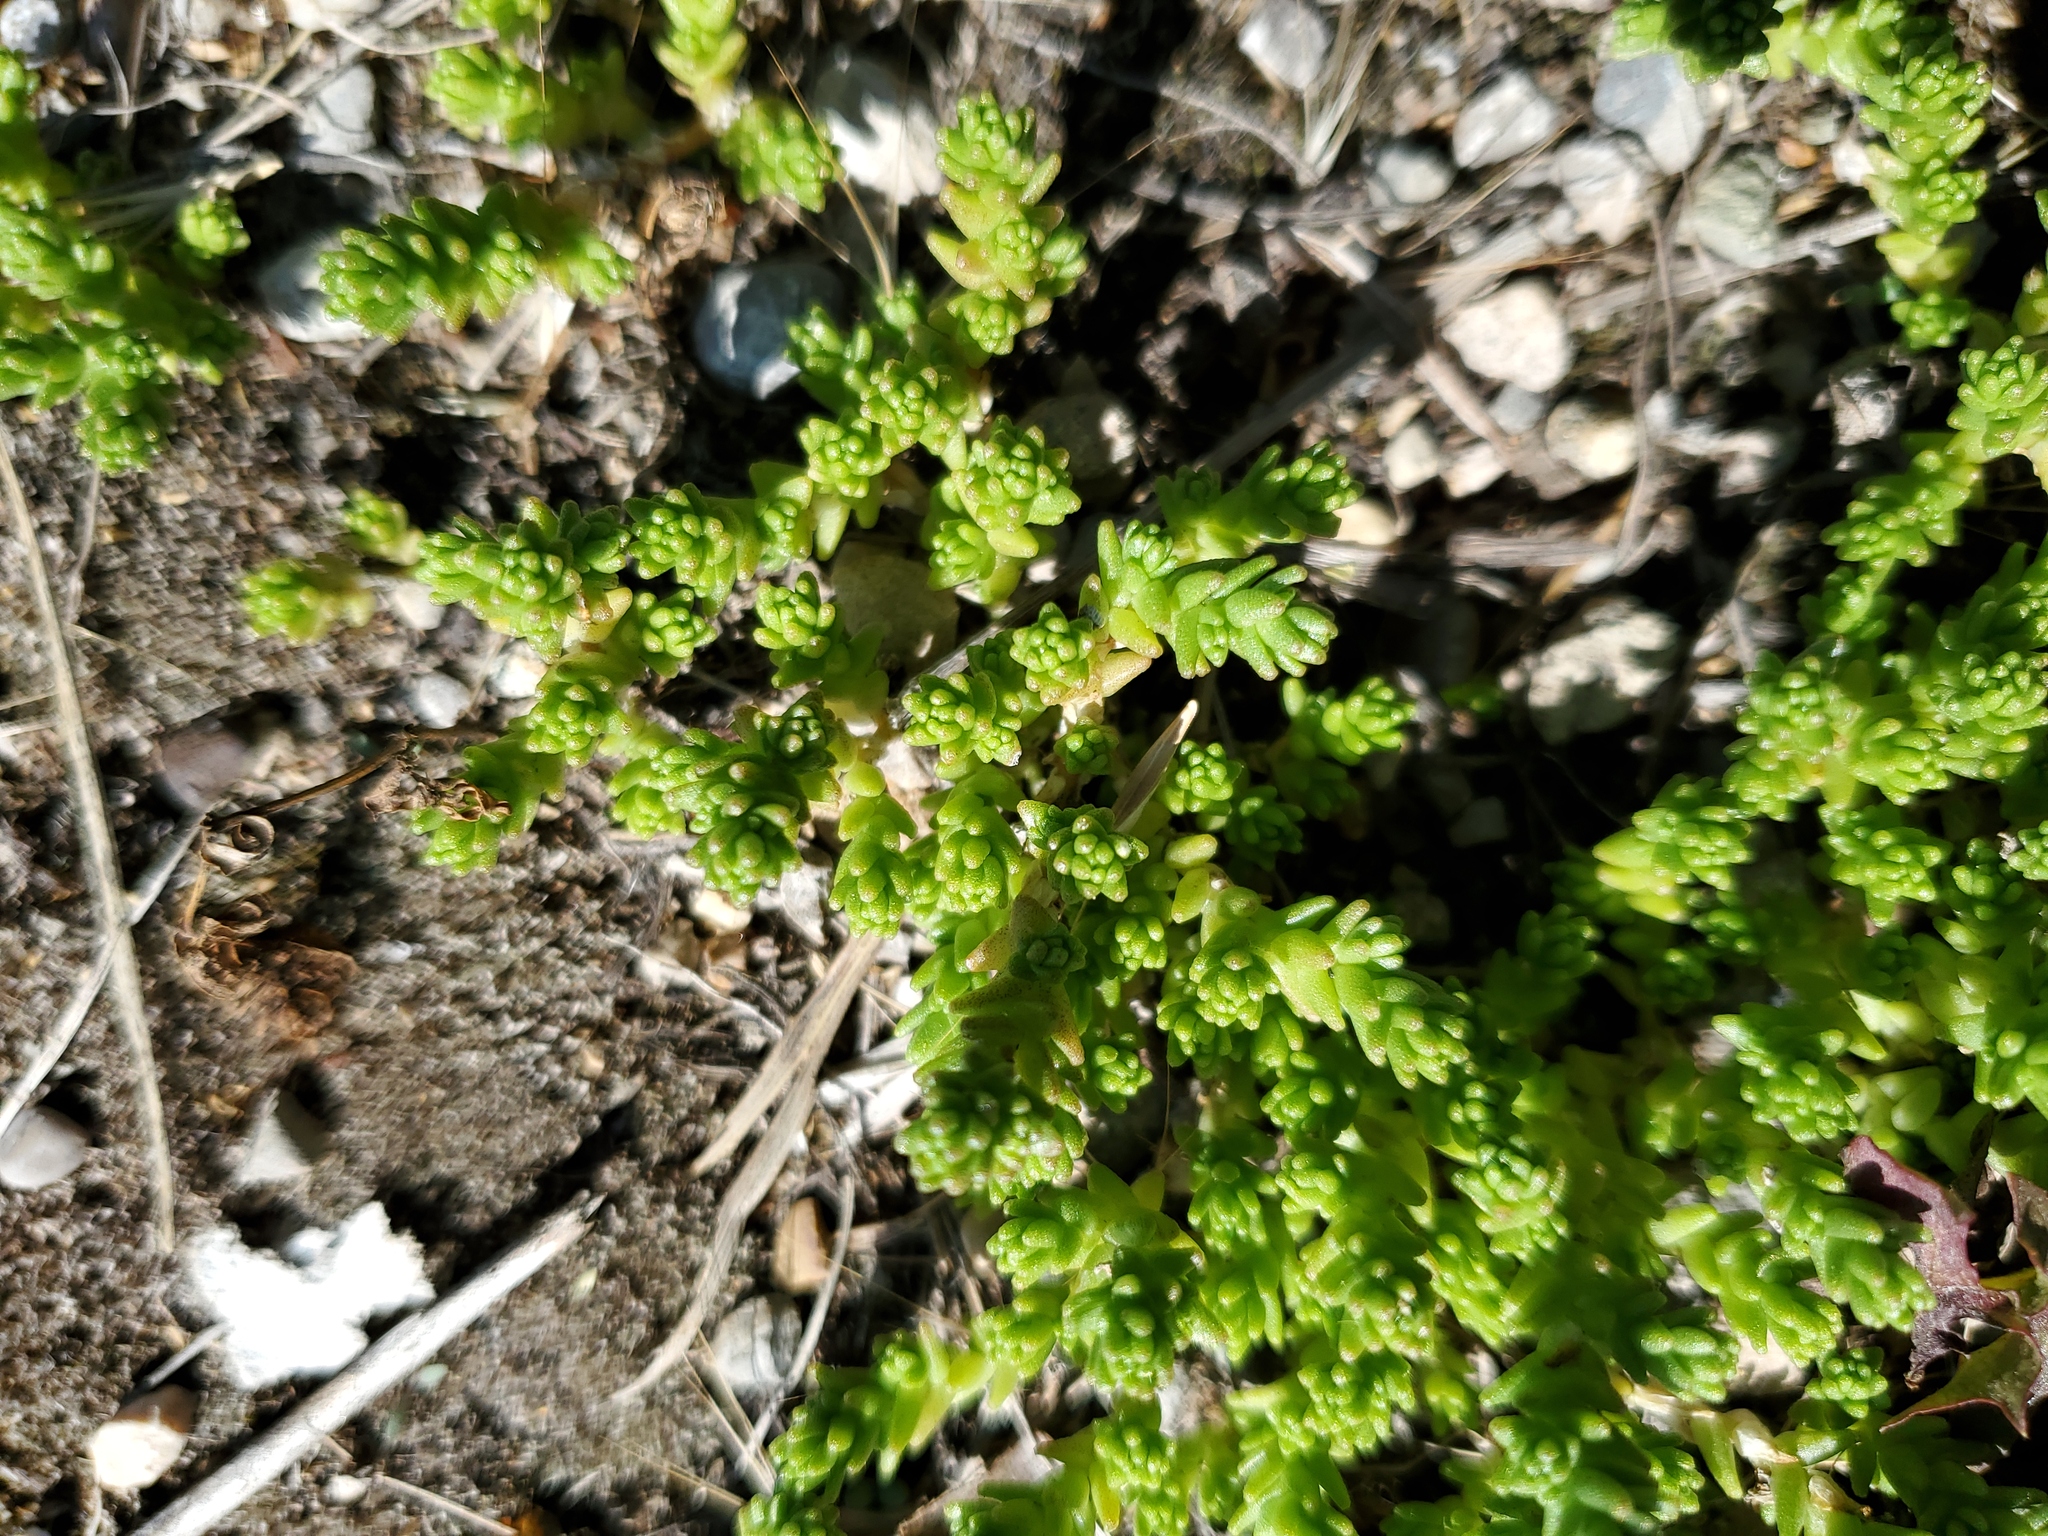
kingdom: Plantae
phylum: Tracheophyta
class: Magnoliopsida
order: Saxifragales
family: Crassulaceae
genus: Sedum
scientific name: Sedum acre
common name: Biting stonecrop
